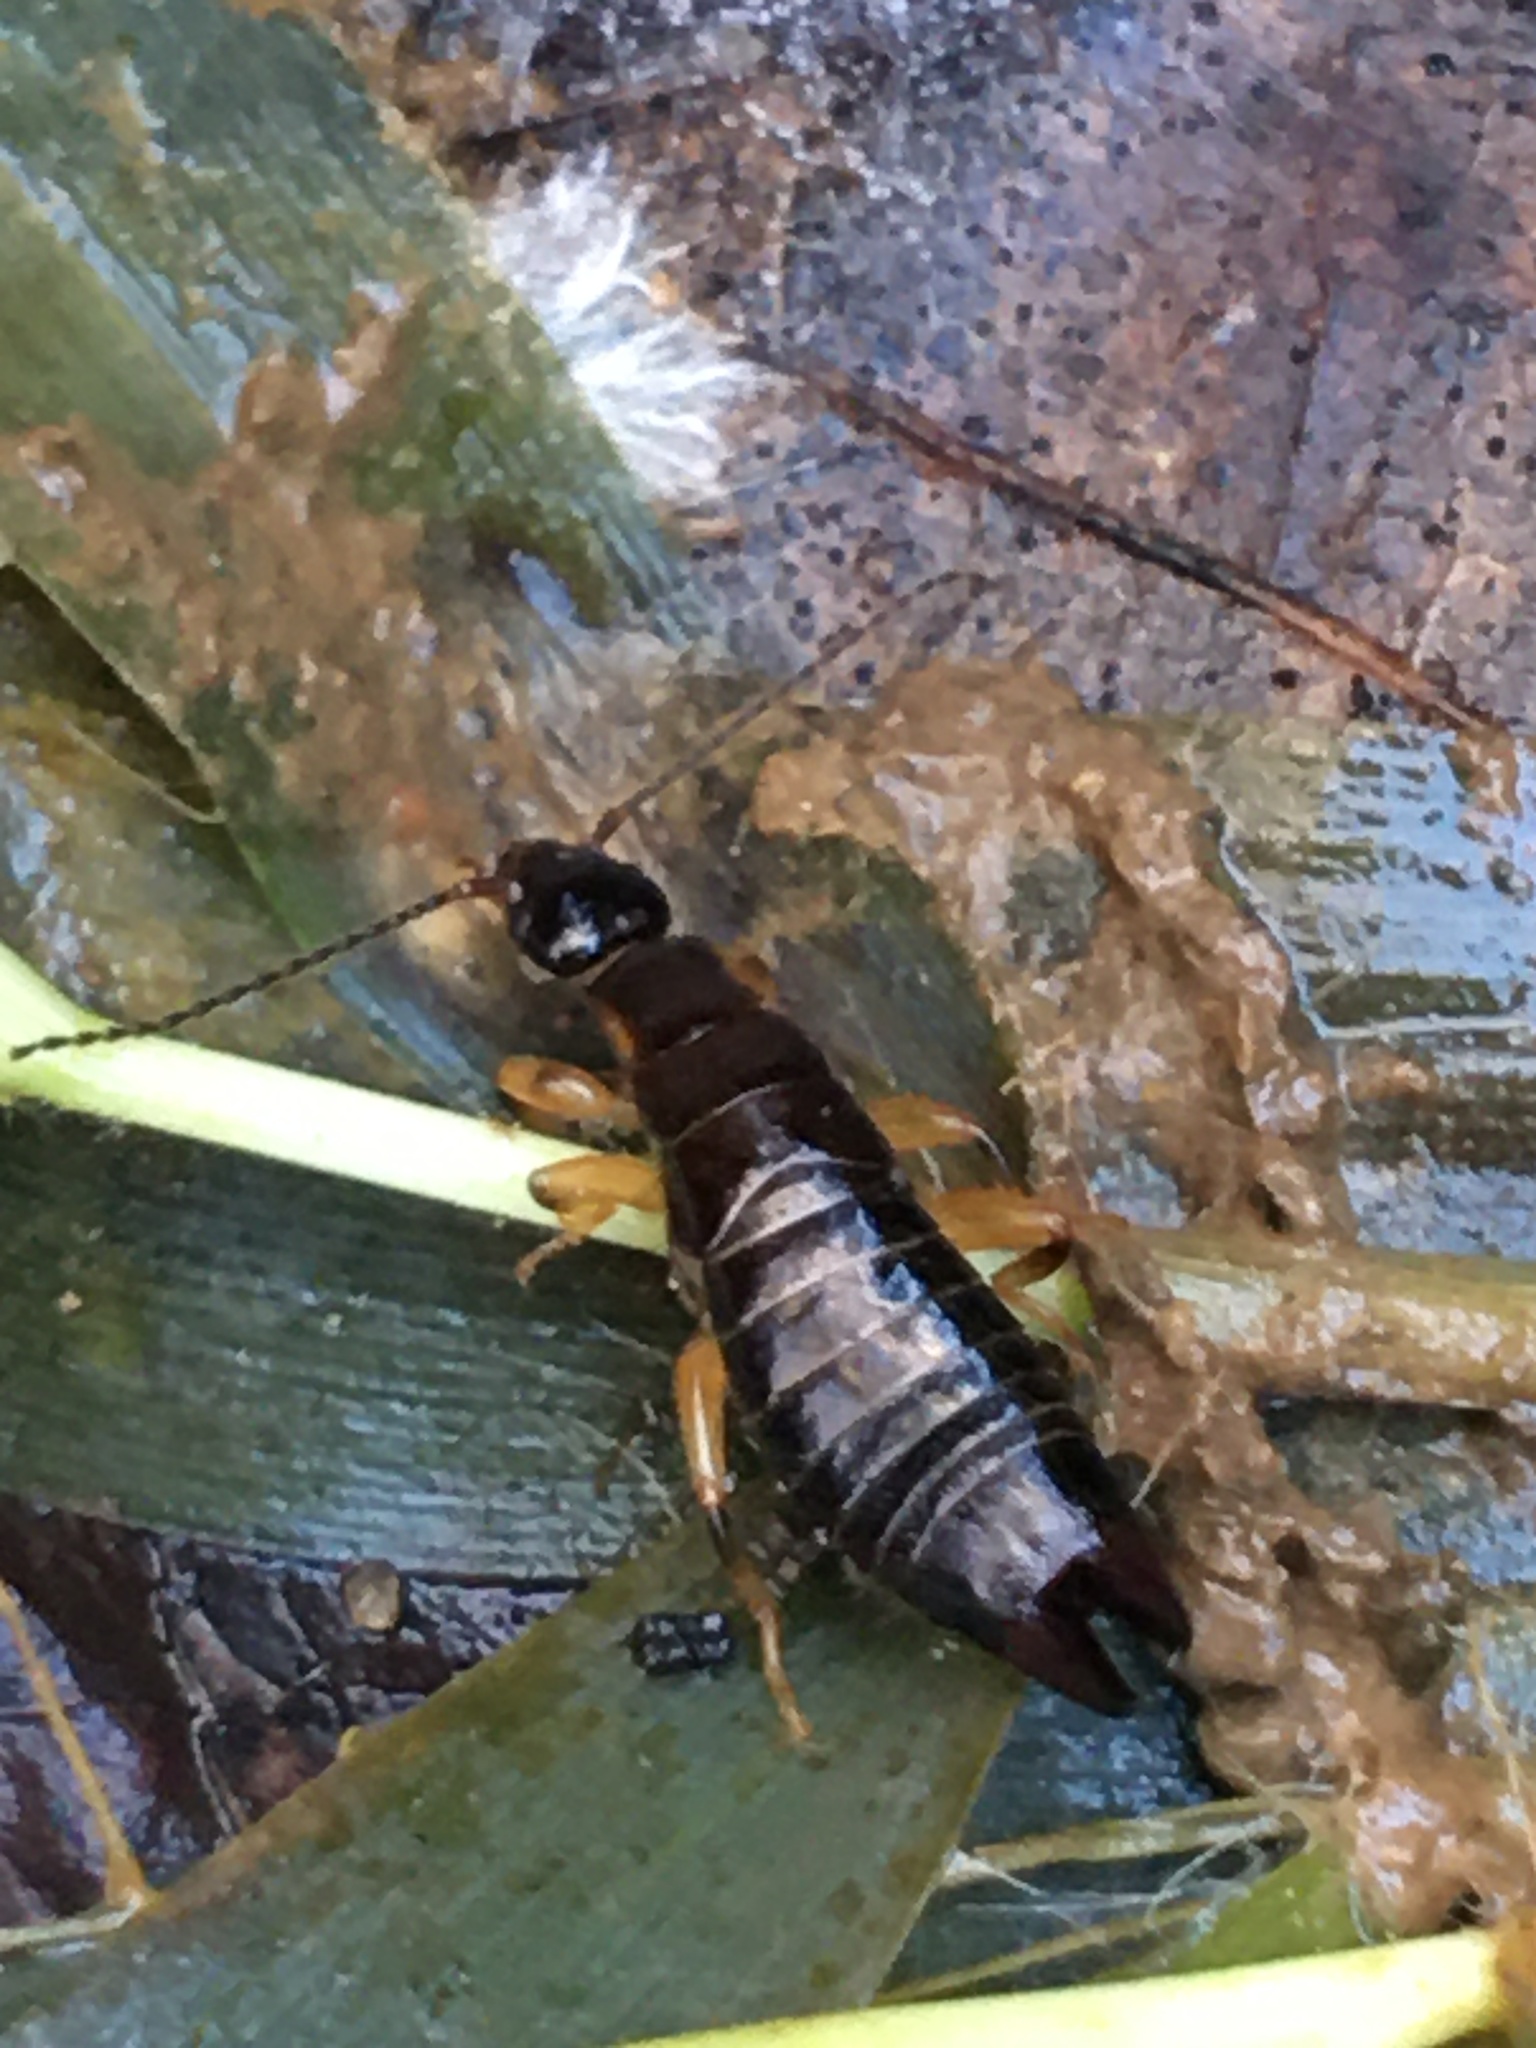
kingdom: Animalia
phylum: Arthropoda
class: Insecta
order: Dermaptera
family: Anisolabididae
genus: Euborellia
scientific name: Euborellia annulipes
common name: Ringlegged earwig
